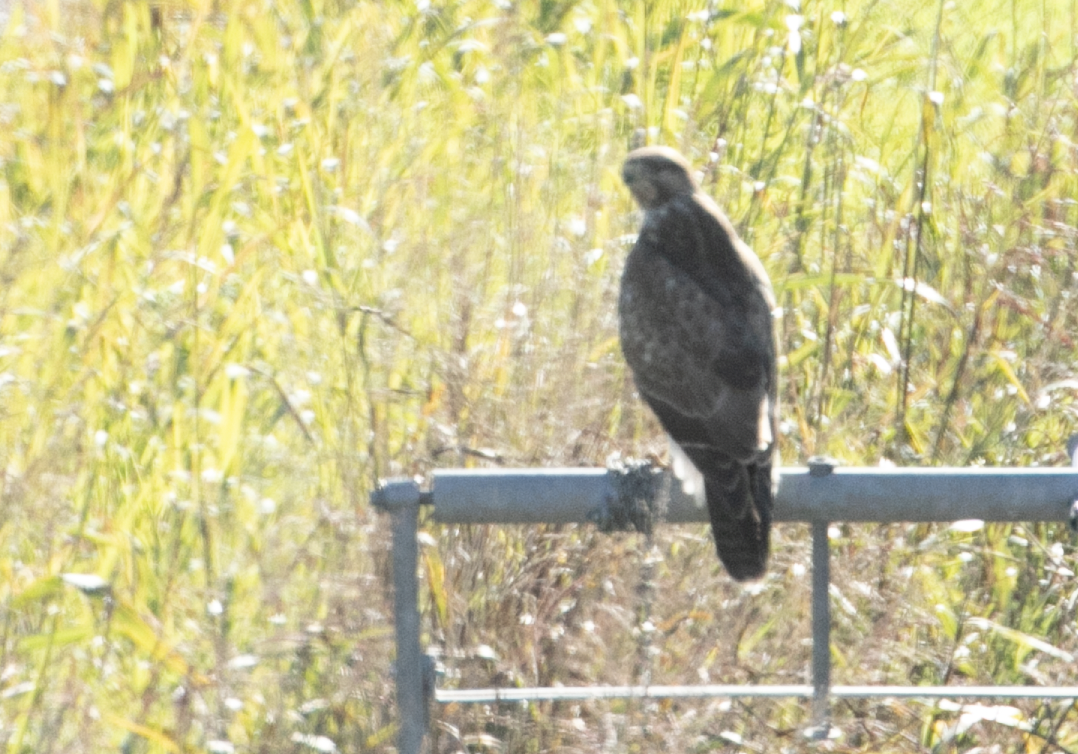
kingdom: Animalia
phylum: Chordata
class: Aves
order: Accipitriformes
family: Accipitridae
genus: Buteo
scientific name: Buteo buteo
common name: Common buzzard
